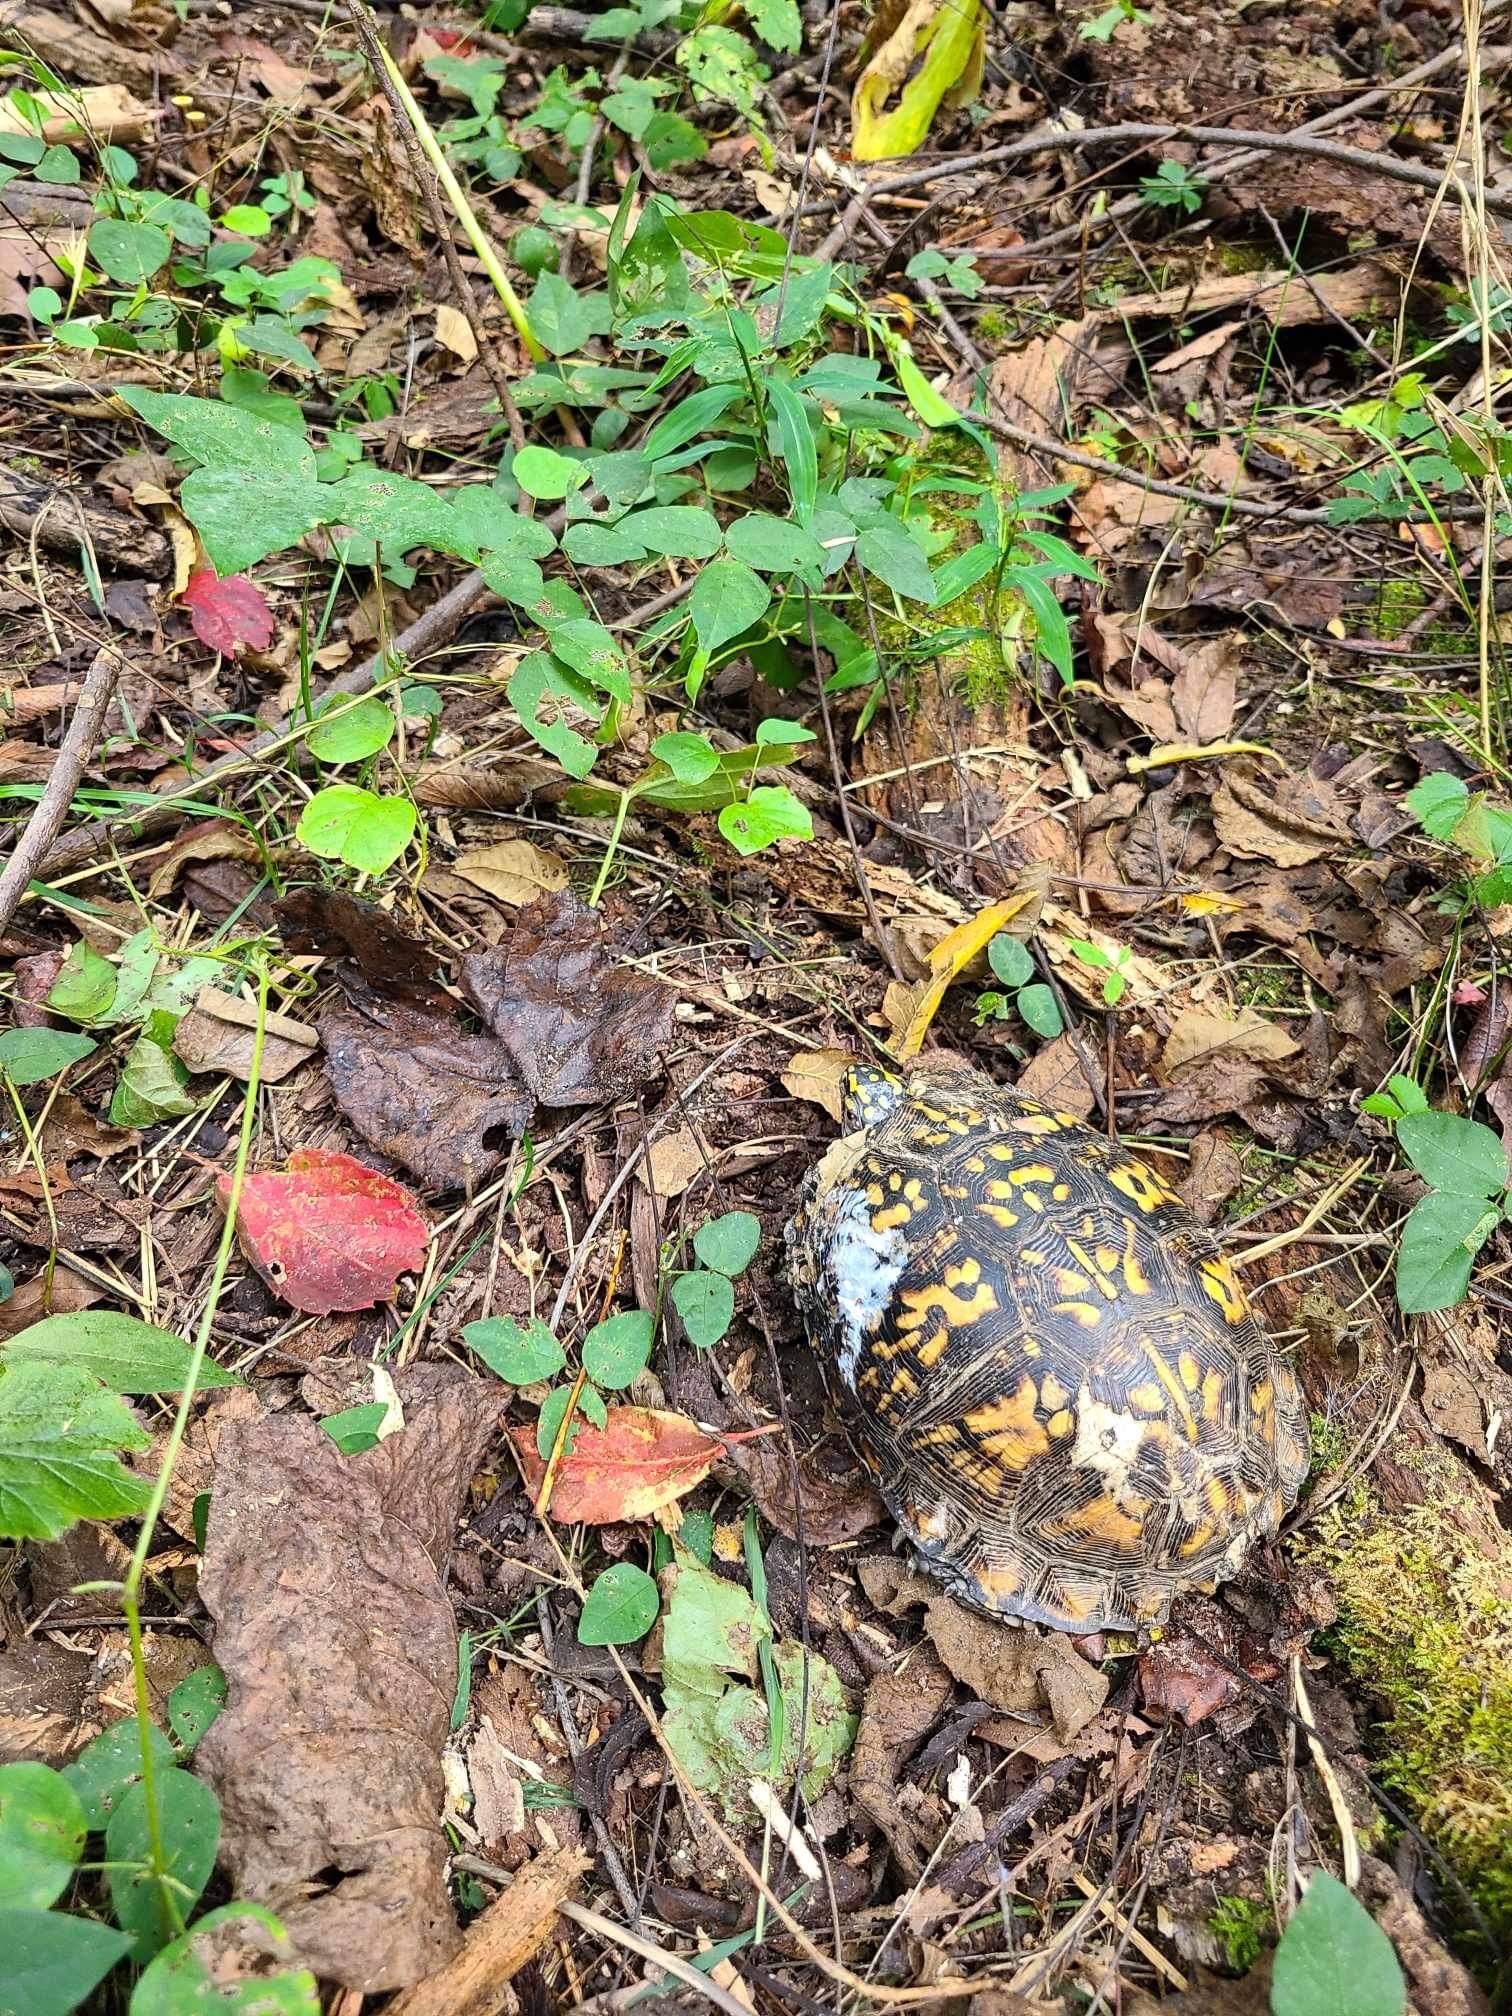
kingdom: Animalia
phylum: Chordata
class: Testudines
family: Emydidae
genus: Terrapene
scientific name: Terrapene carolina
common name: Common box turtle
